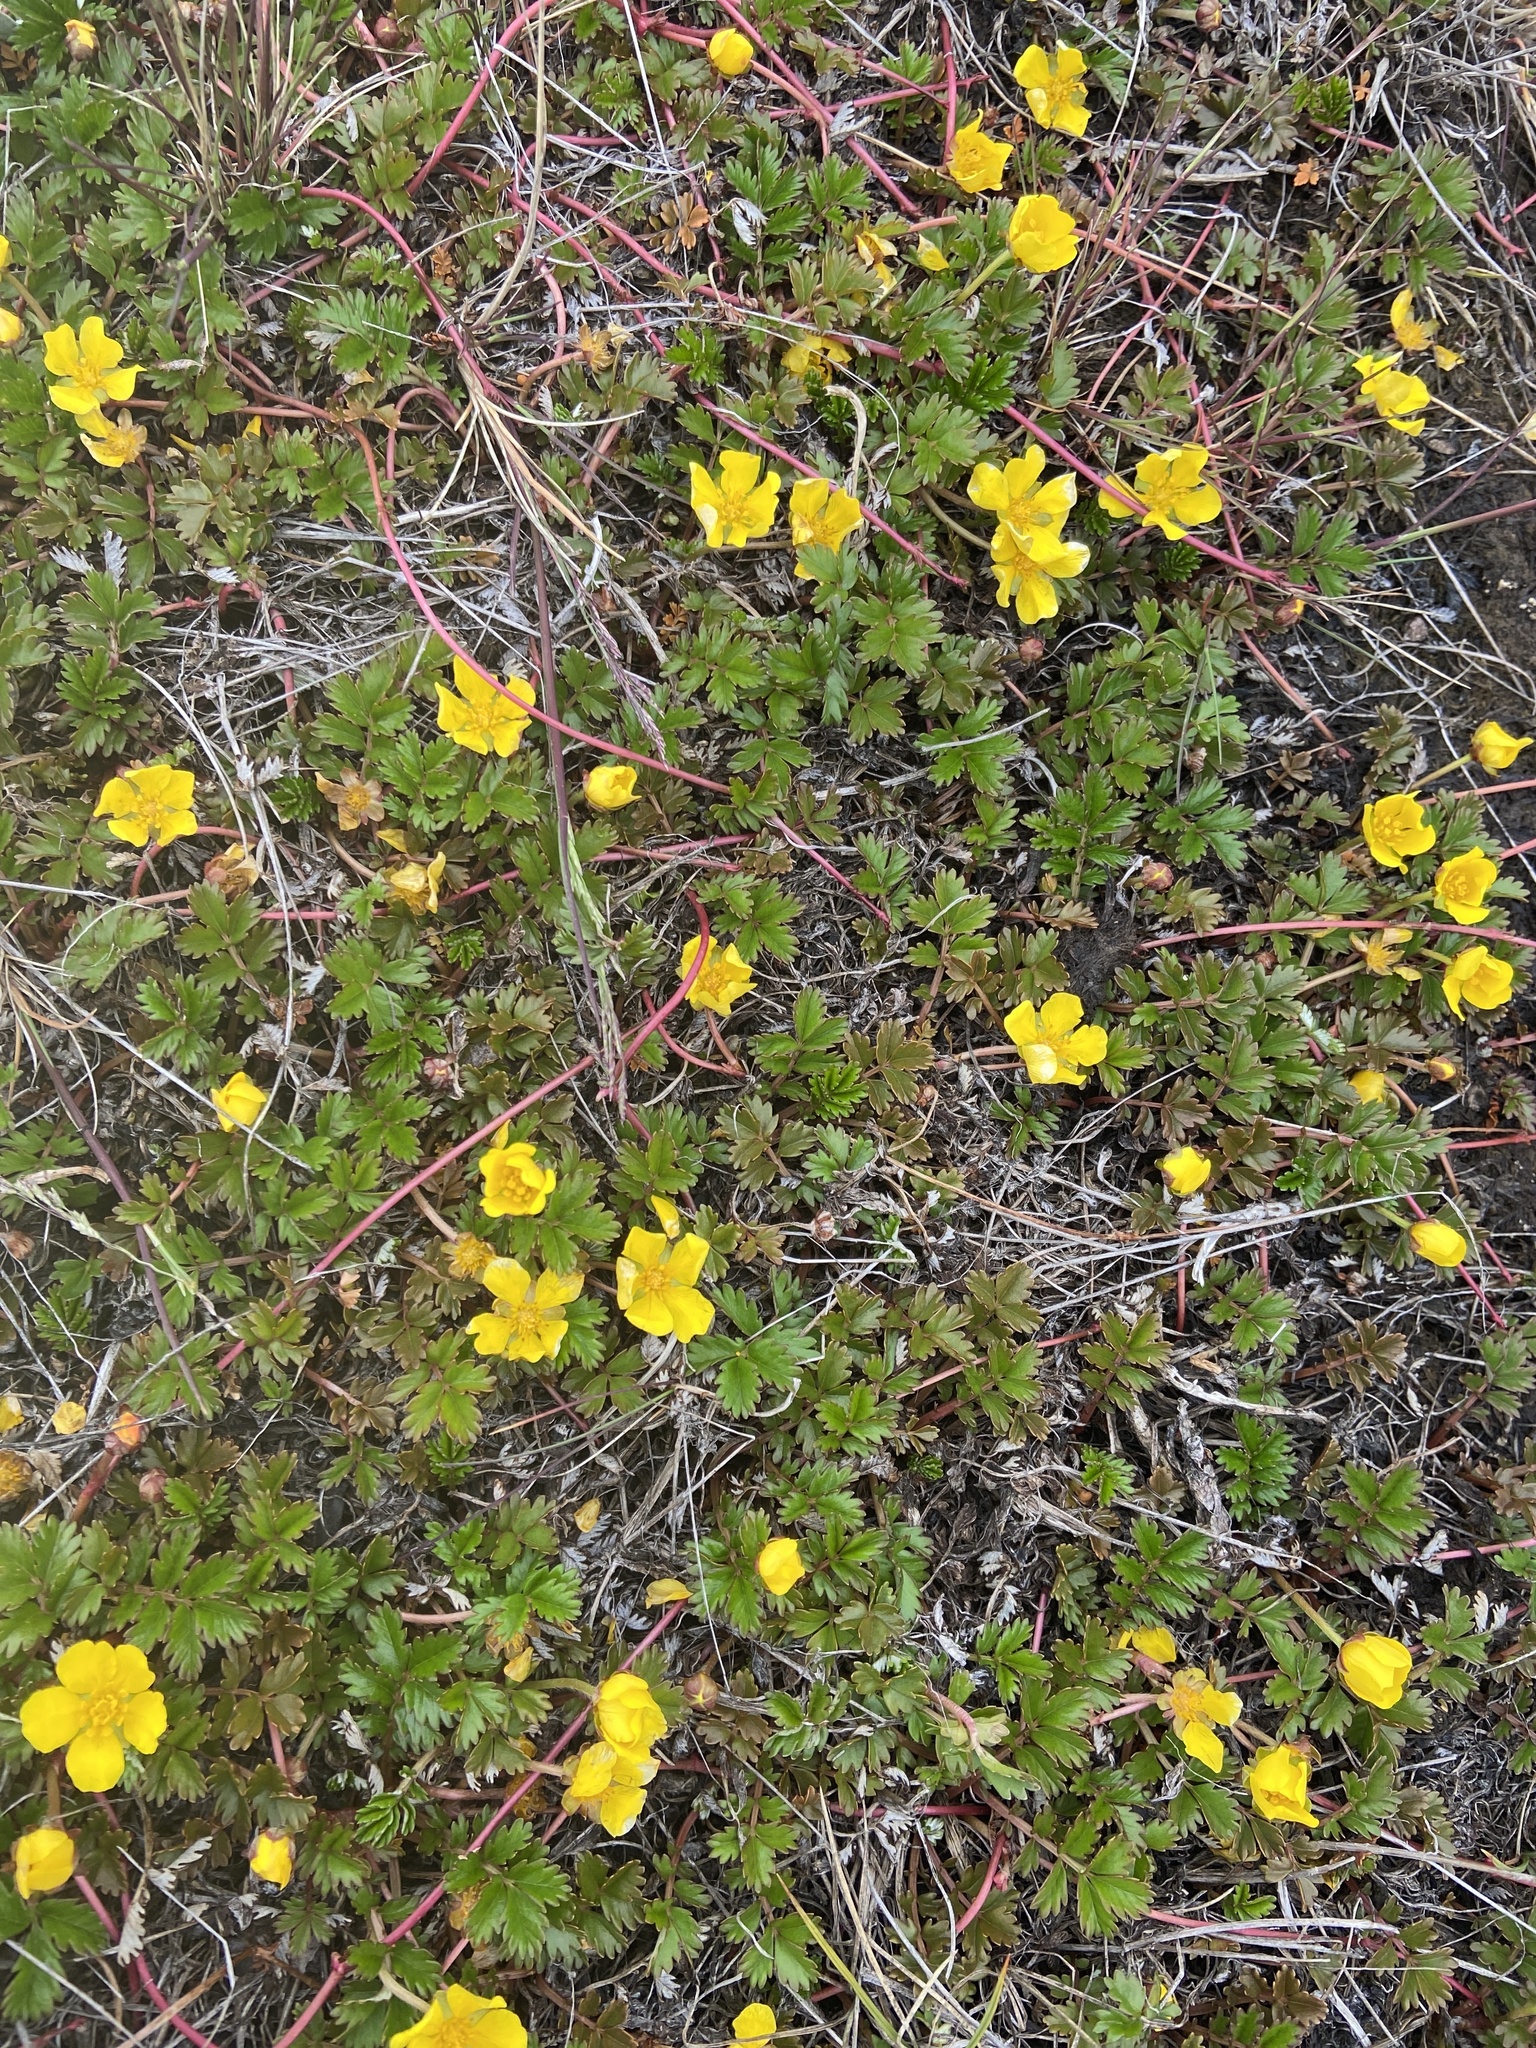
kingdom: Plantae
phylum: Tracheophyta
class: Magnoliopsida
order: Rosales
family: Rosaceae
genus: Argentina
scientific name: Argentina anserina
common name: Common silverweed
